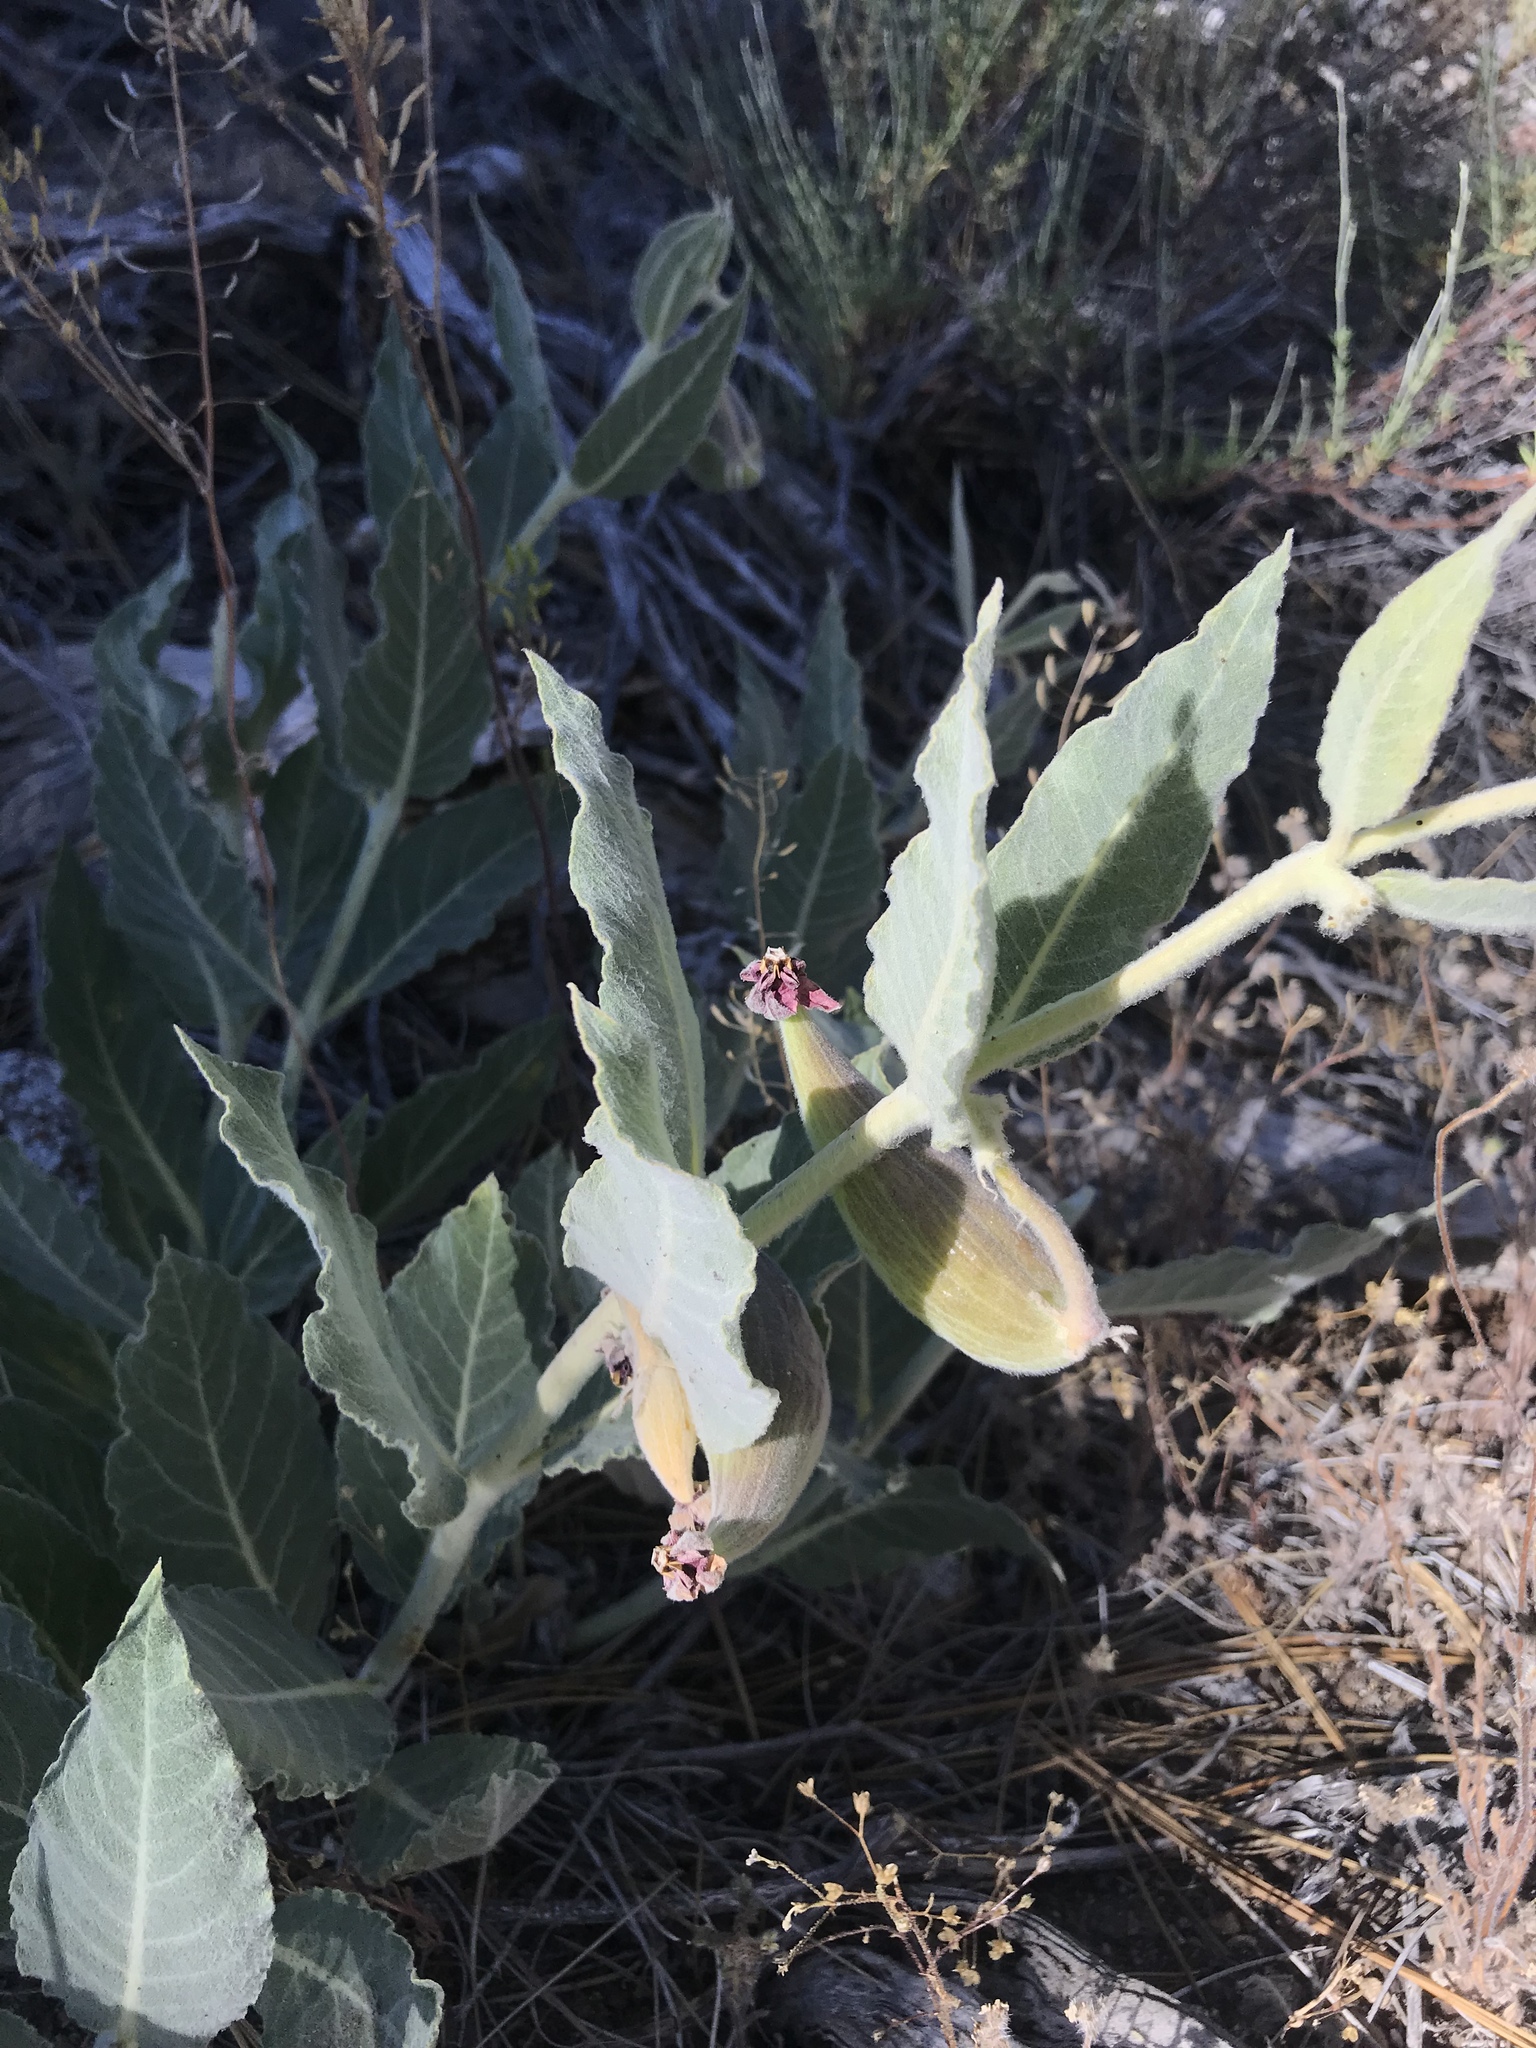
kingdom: Plantae
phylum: Tracheophyta
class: Magnoliopsida
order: Gentianales
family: Apocynaceae
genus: Asclepias
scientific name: Asclepias californica
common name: California milkweed
